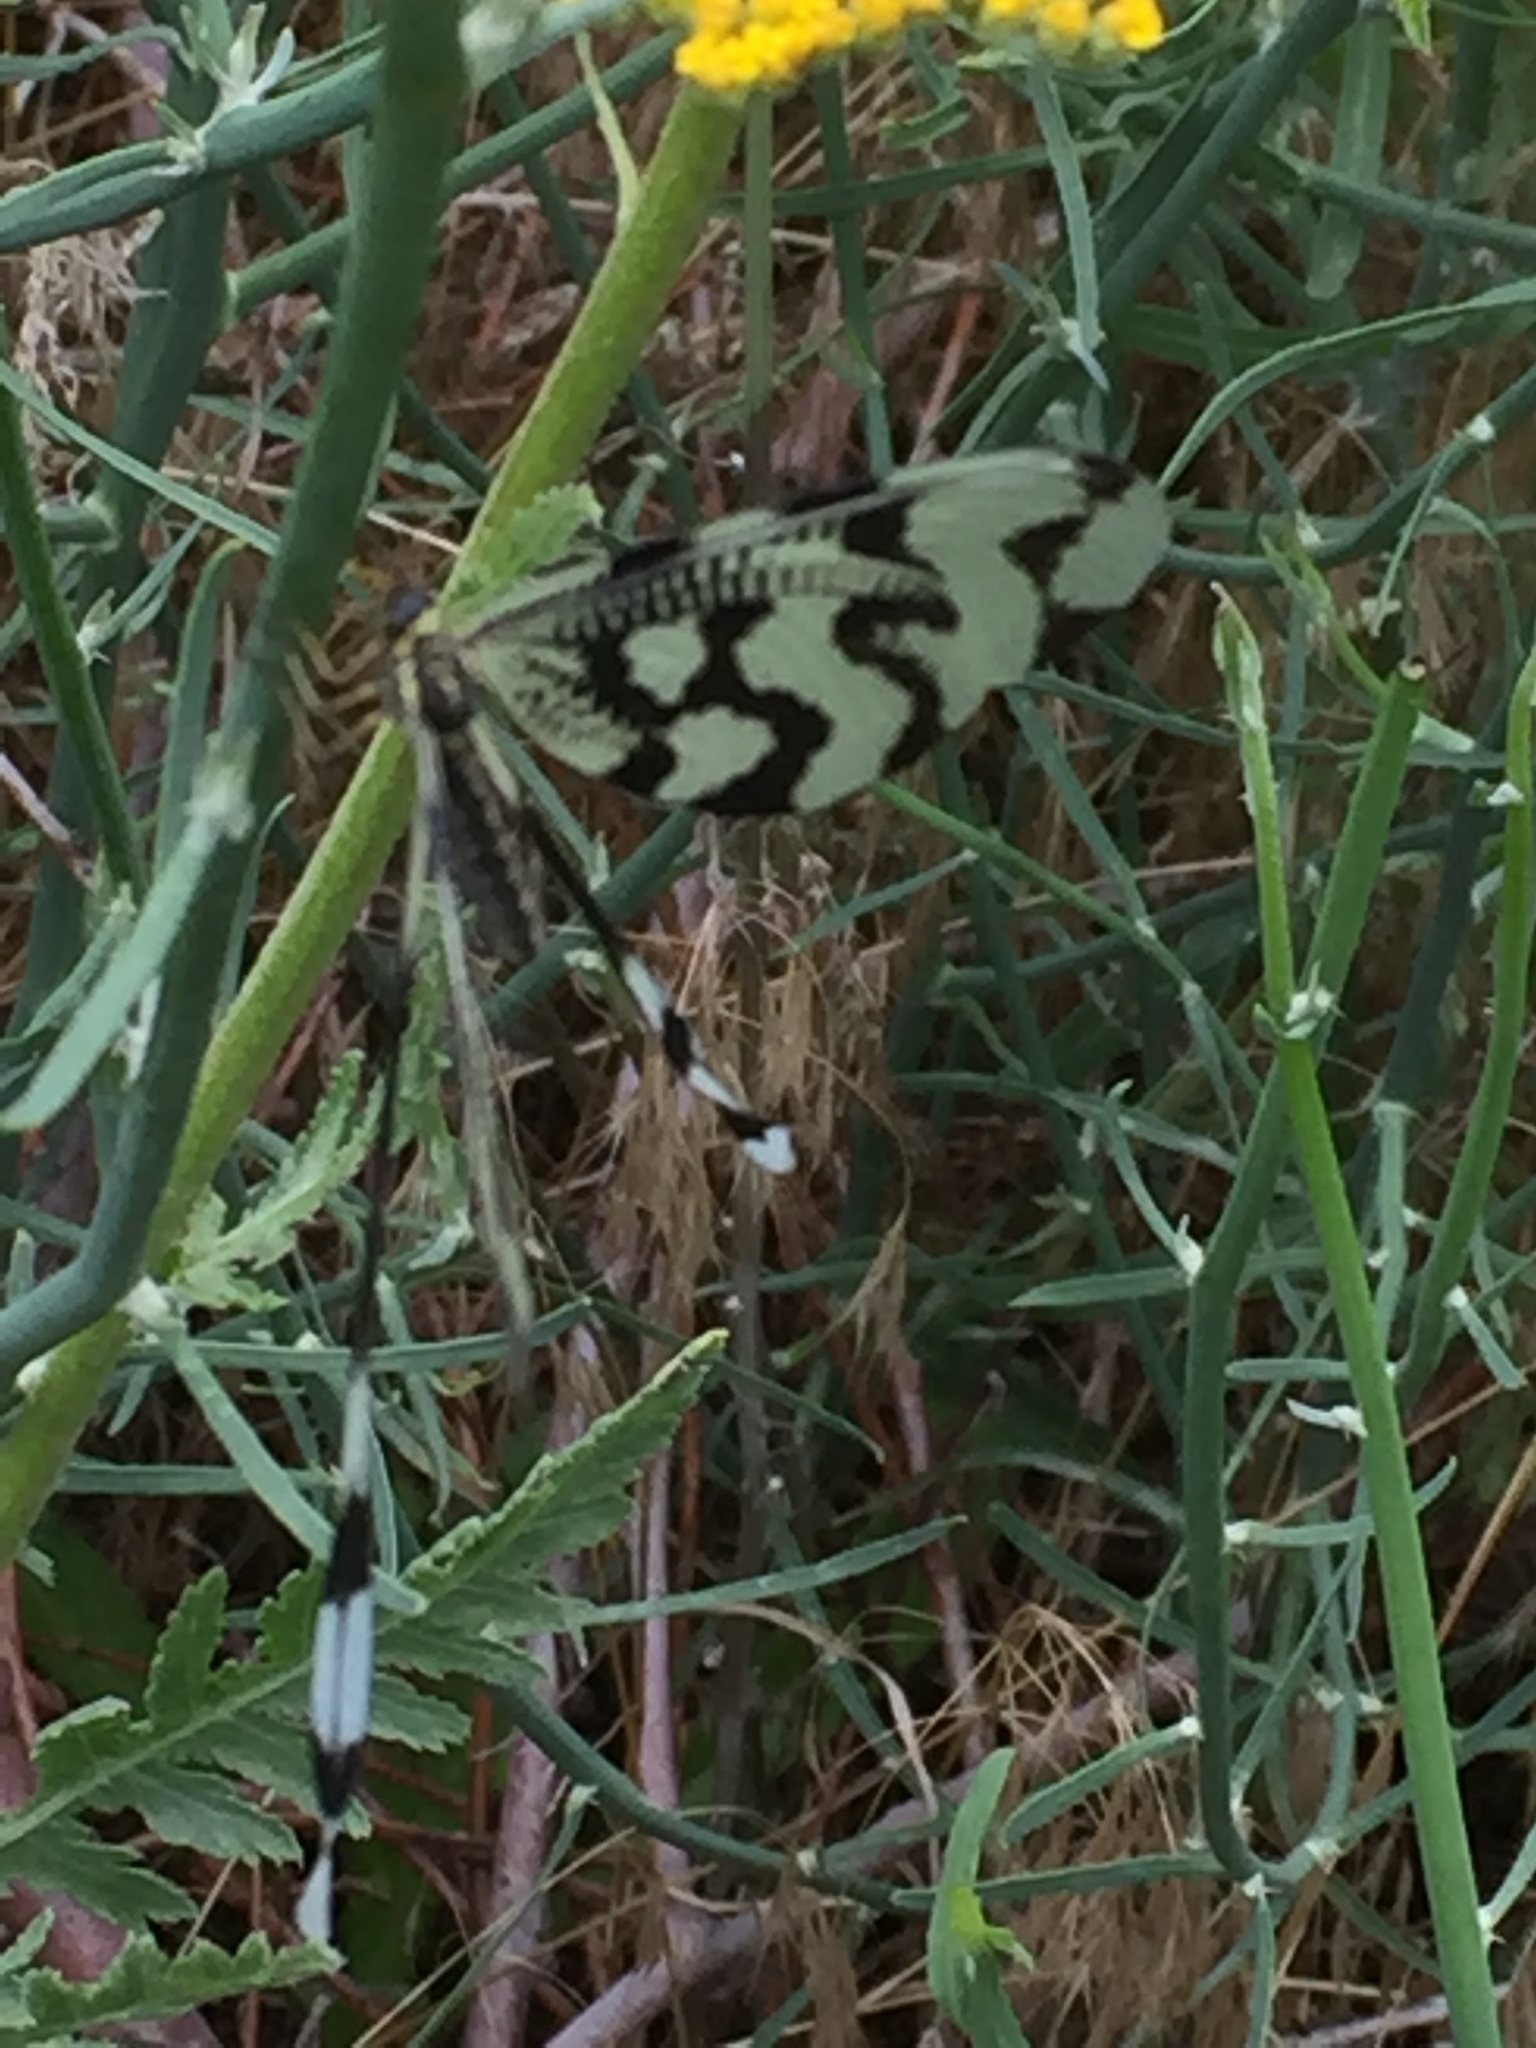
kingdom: Animalia
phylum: Arthropoda
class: Insecta
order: Neuroptera
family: Nemopteridae
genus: Nemoptera
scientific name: Nemoptera sinuata
